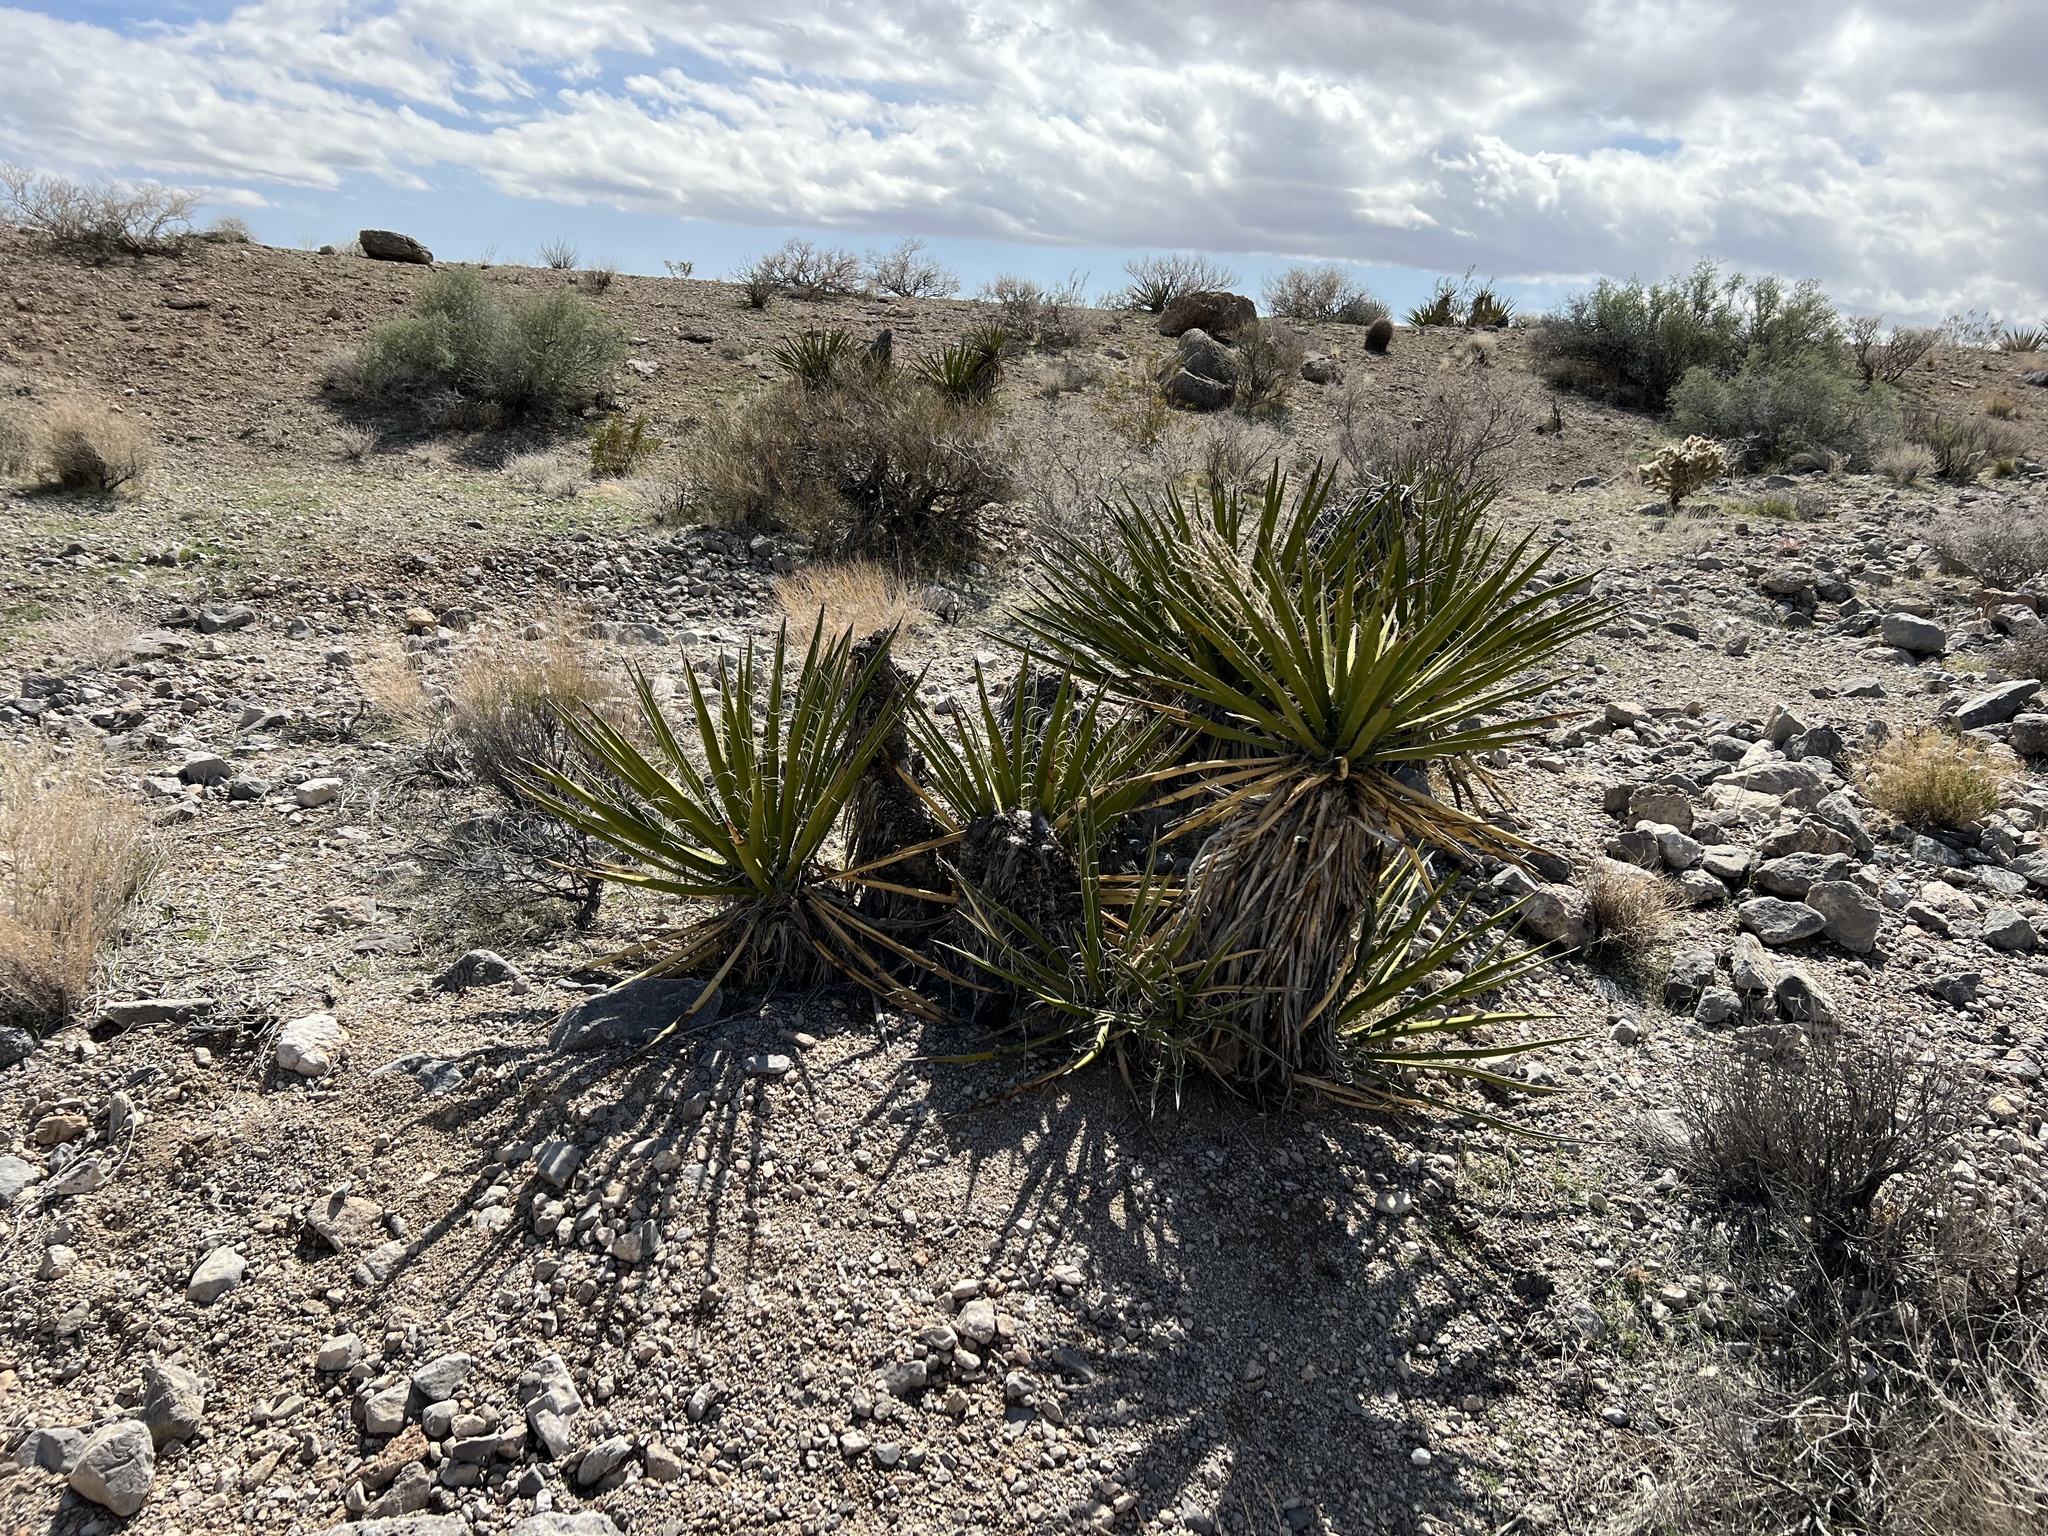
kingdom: Plantae
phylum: Tracheophyta
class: Liliopsida
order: Asparagales
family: Asparagaceae
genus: Yucca
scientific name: Yucca schidigera
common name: Mojave yucca
